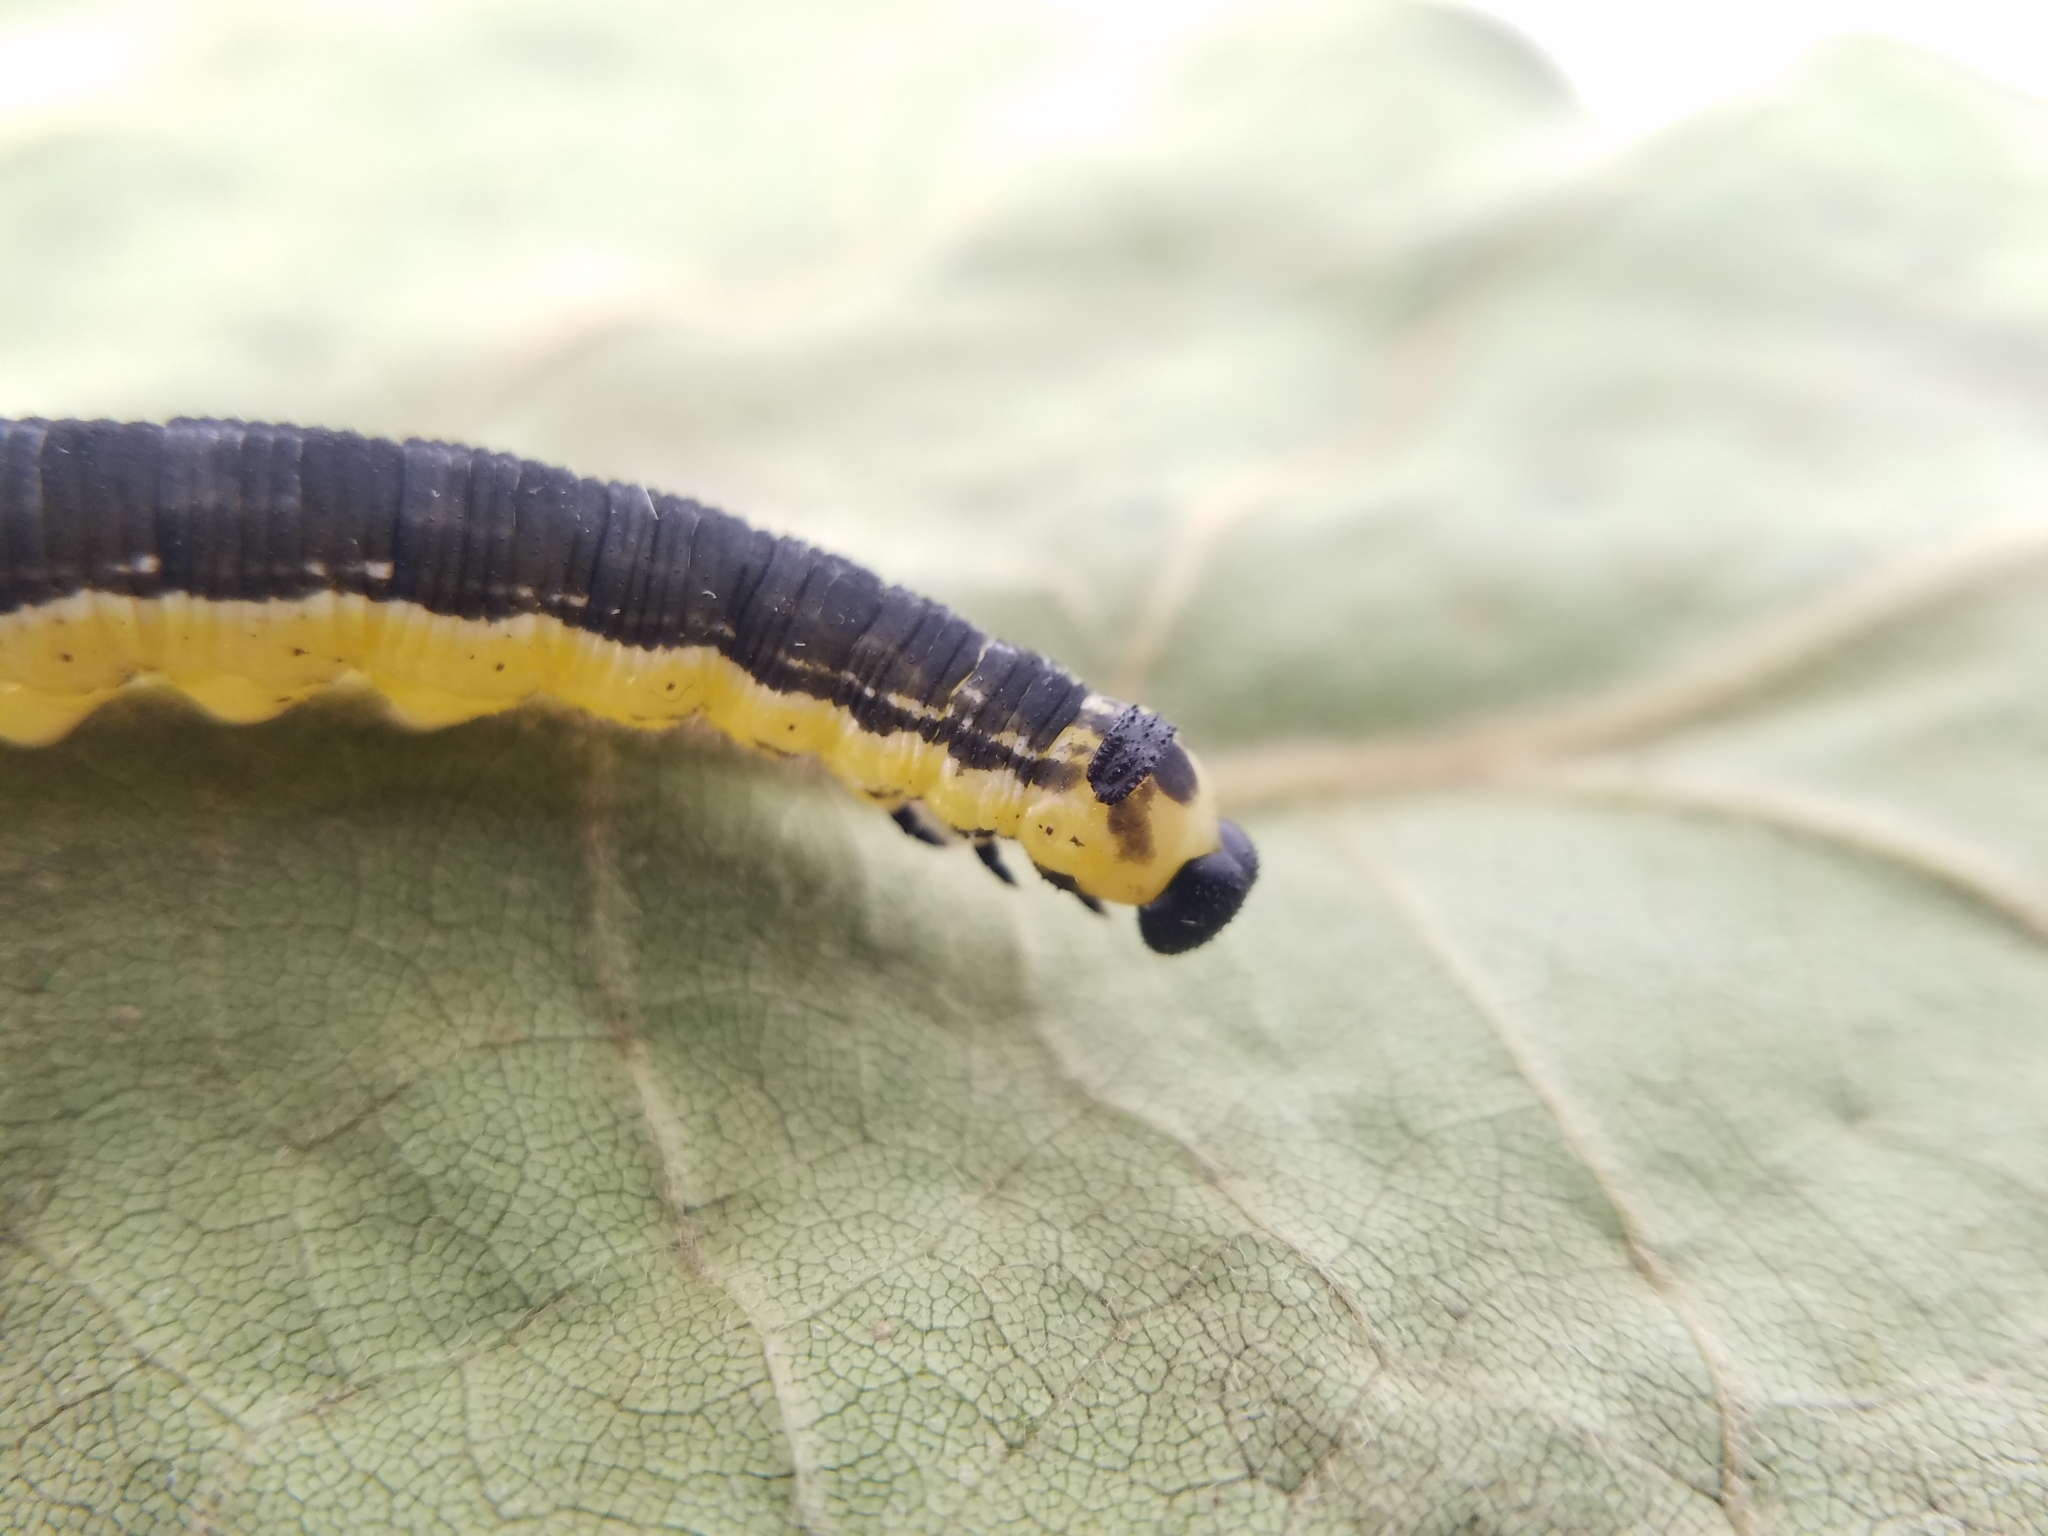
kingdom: Animalia
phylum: Arthropoda
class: Insecta
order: Lepidoptera
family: Sphingidae
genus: Ceratomia
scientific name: Ceratomia catalpae
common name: Catalpa hornworm
